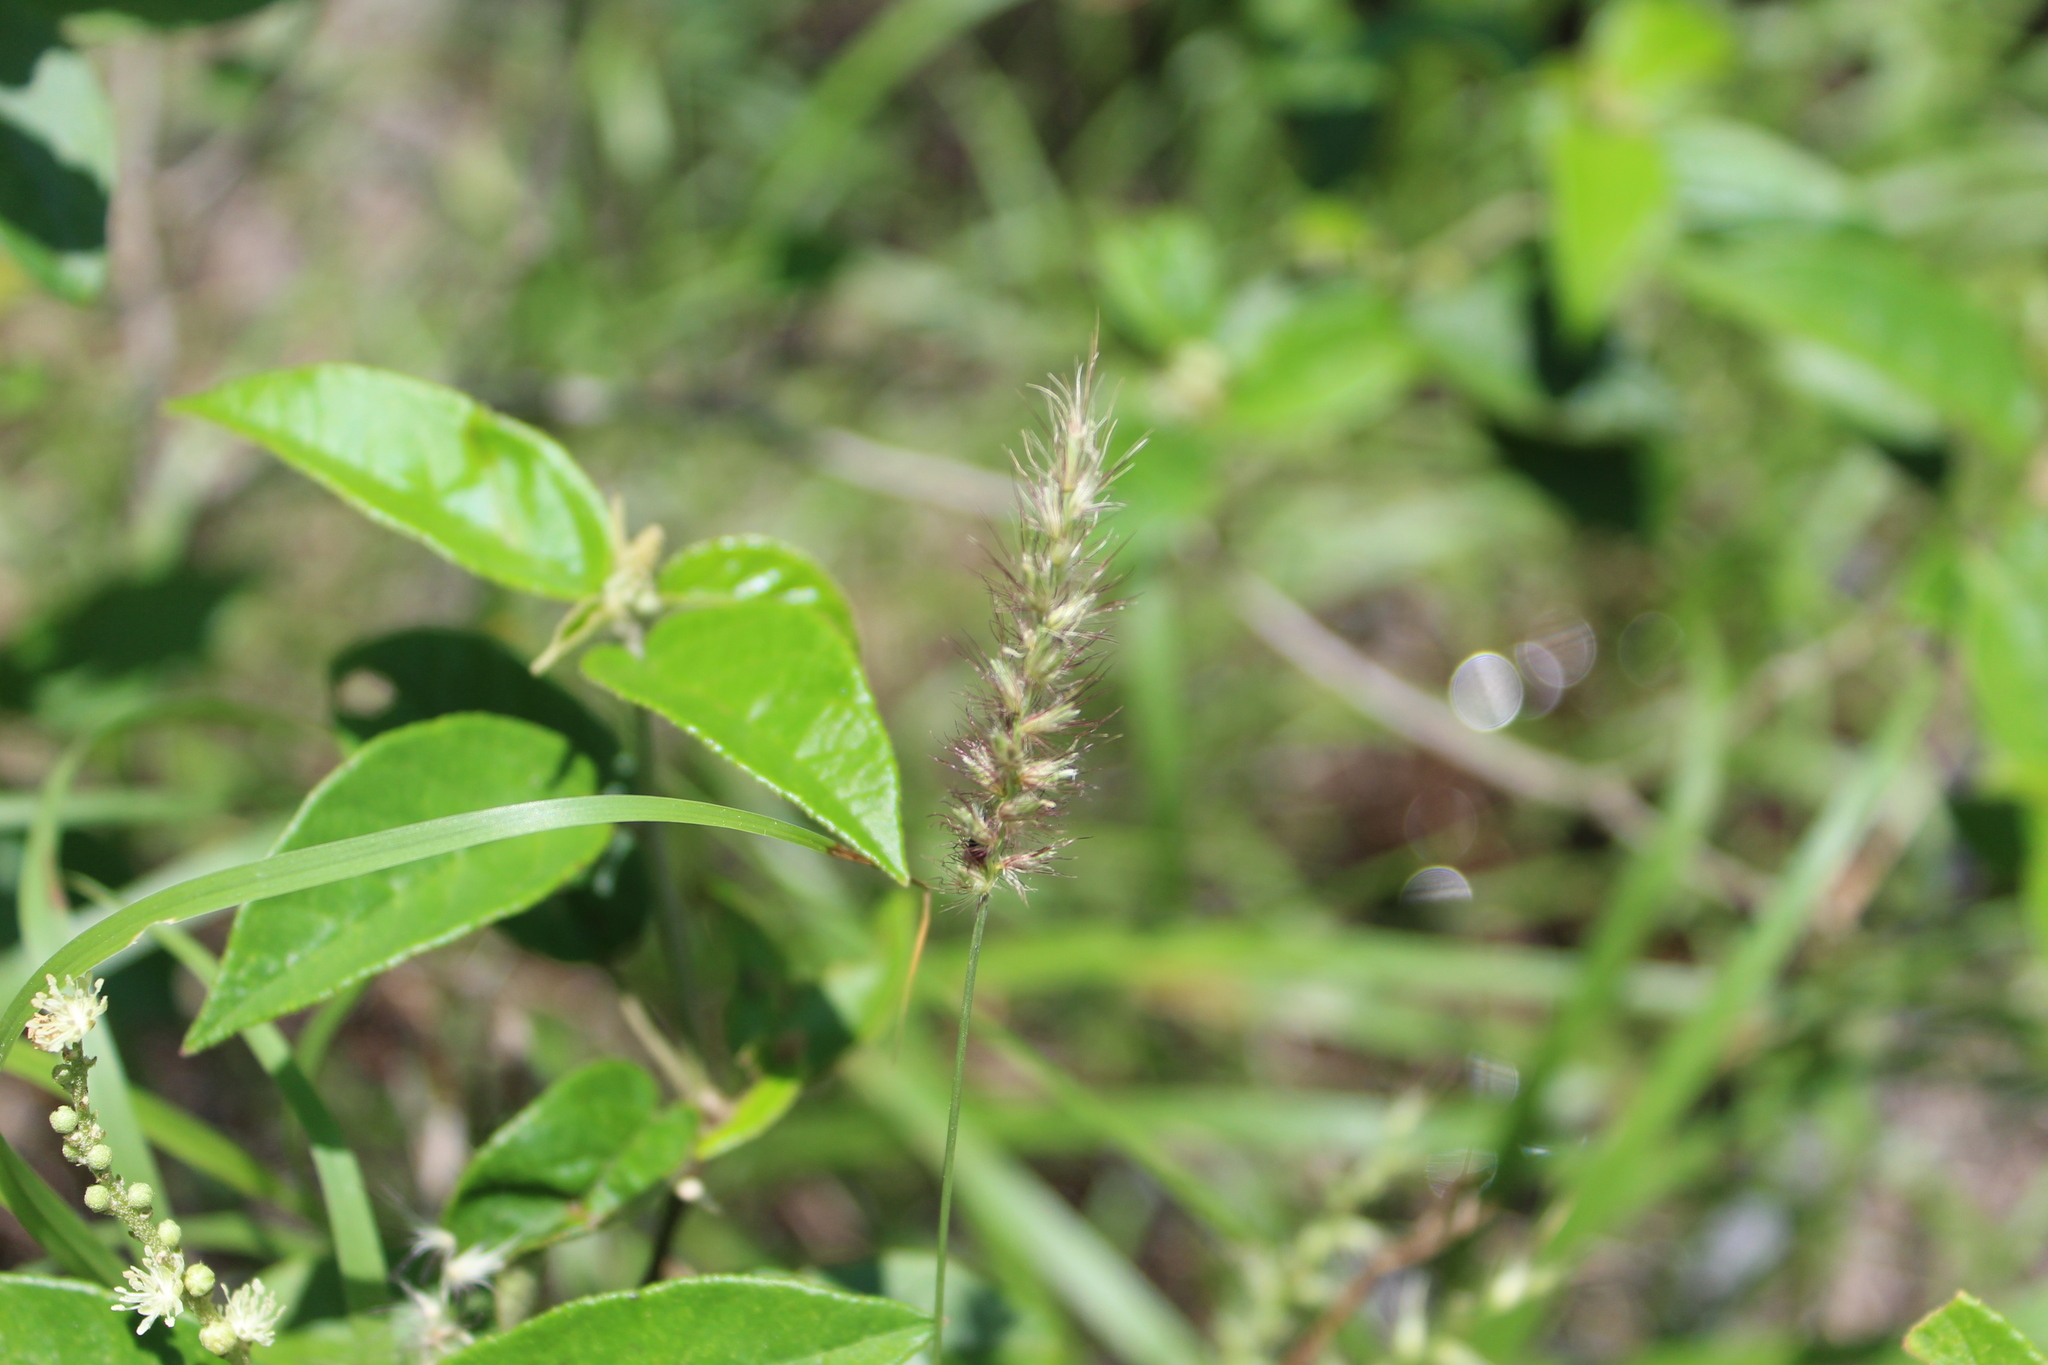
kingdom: Plantae
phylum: Tracheophyta
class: Liliopsida
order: Poales
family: Poaceae
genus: Cenchrus
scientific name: Cenchrus ciliaris
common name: Buffelgrass
